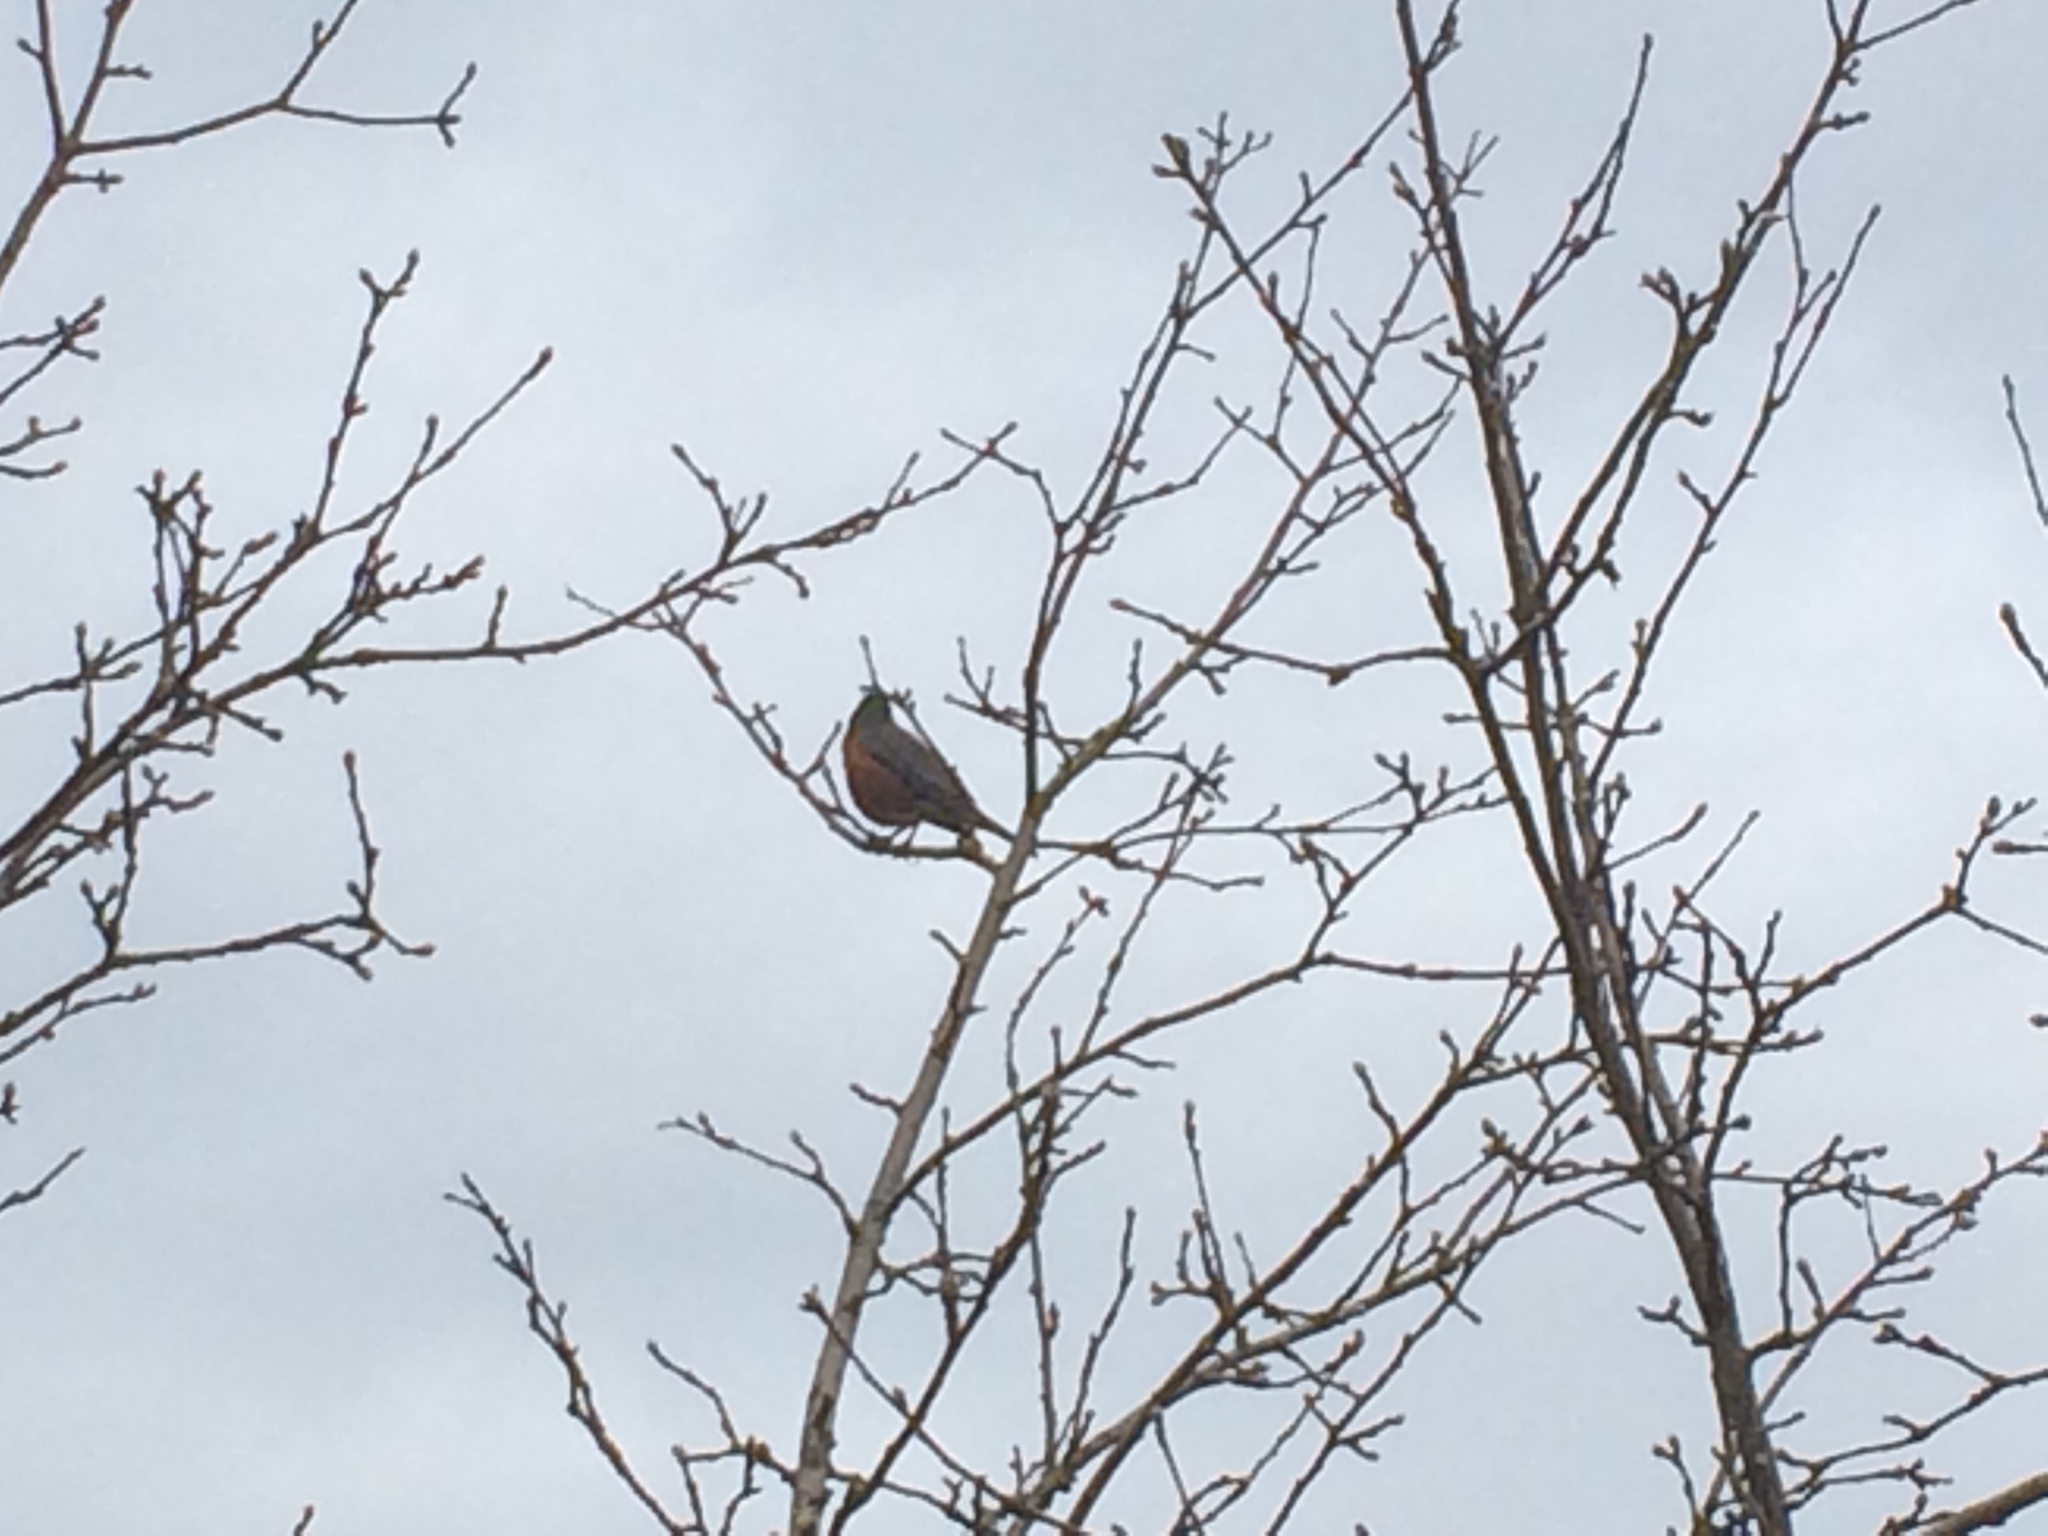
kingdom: Animalia
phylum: Chordata
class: Aves
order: Passeriformes
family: Turdidae
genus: Turdus
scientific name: Turdus migratorius
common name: American robin
